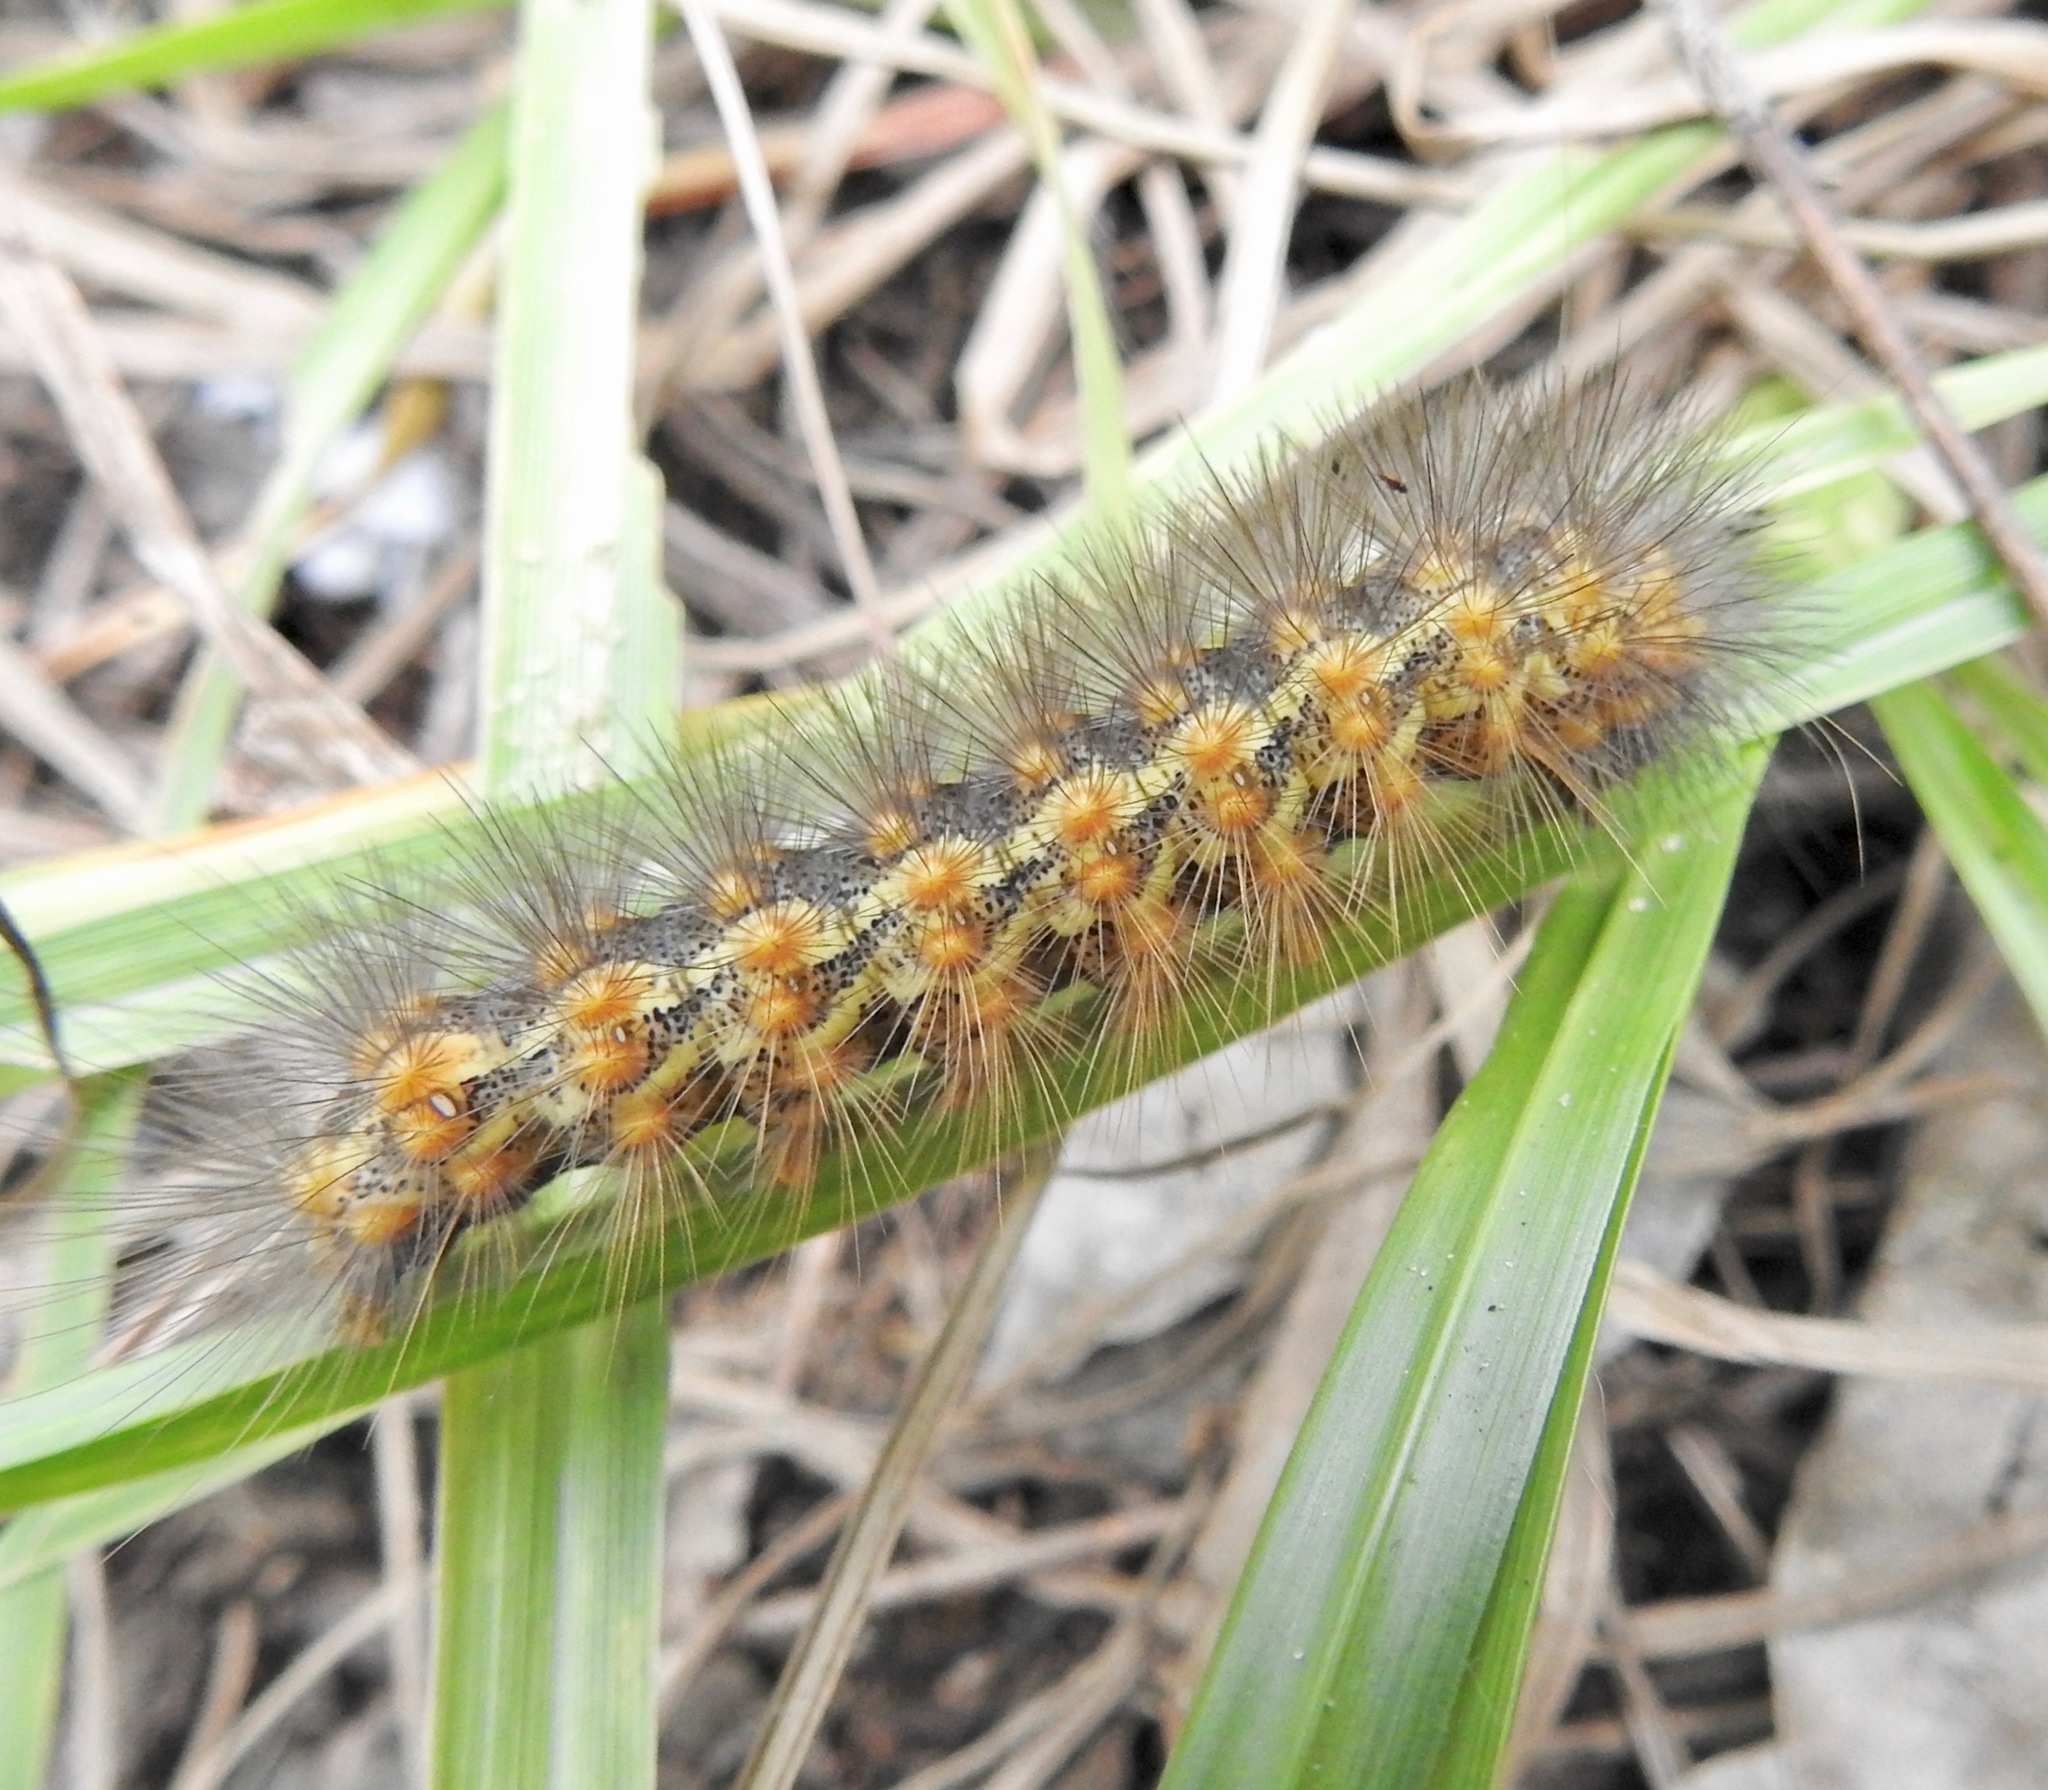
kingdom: Animalia
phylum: Arthropoda
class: Insecta
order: Lepidoptera
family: Erebidae
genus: Estigmene
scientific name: Estigmene acrea
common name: Salt marsh moth
